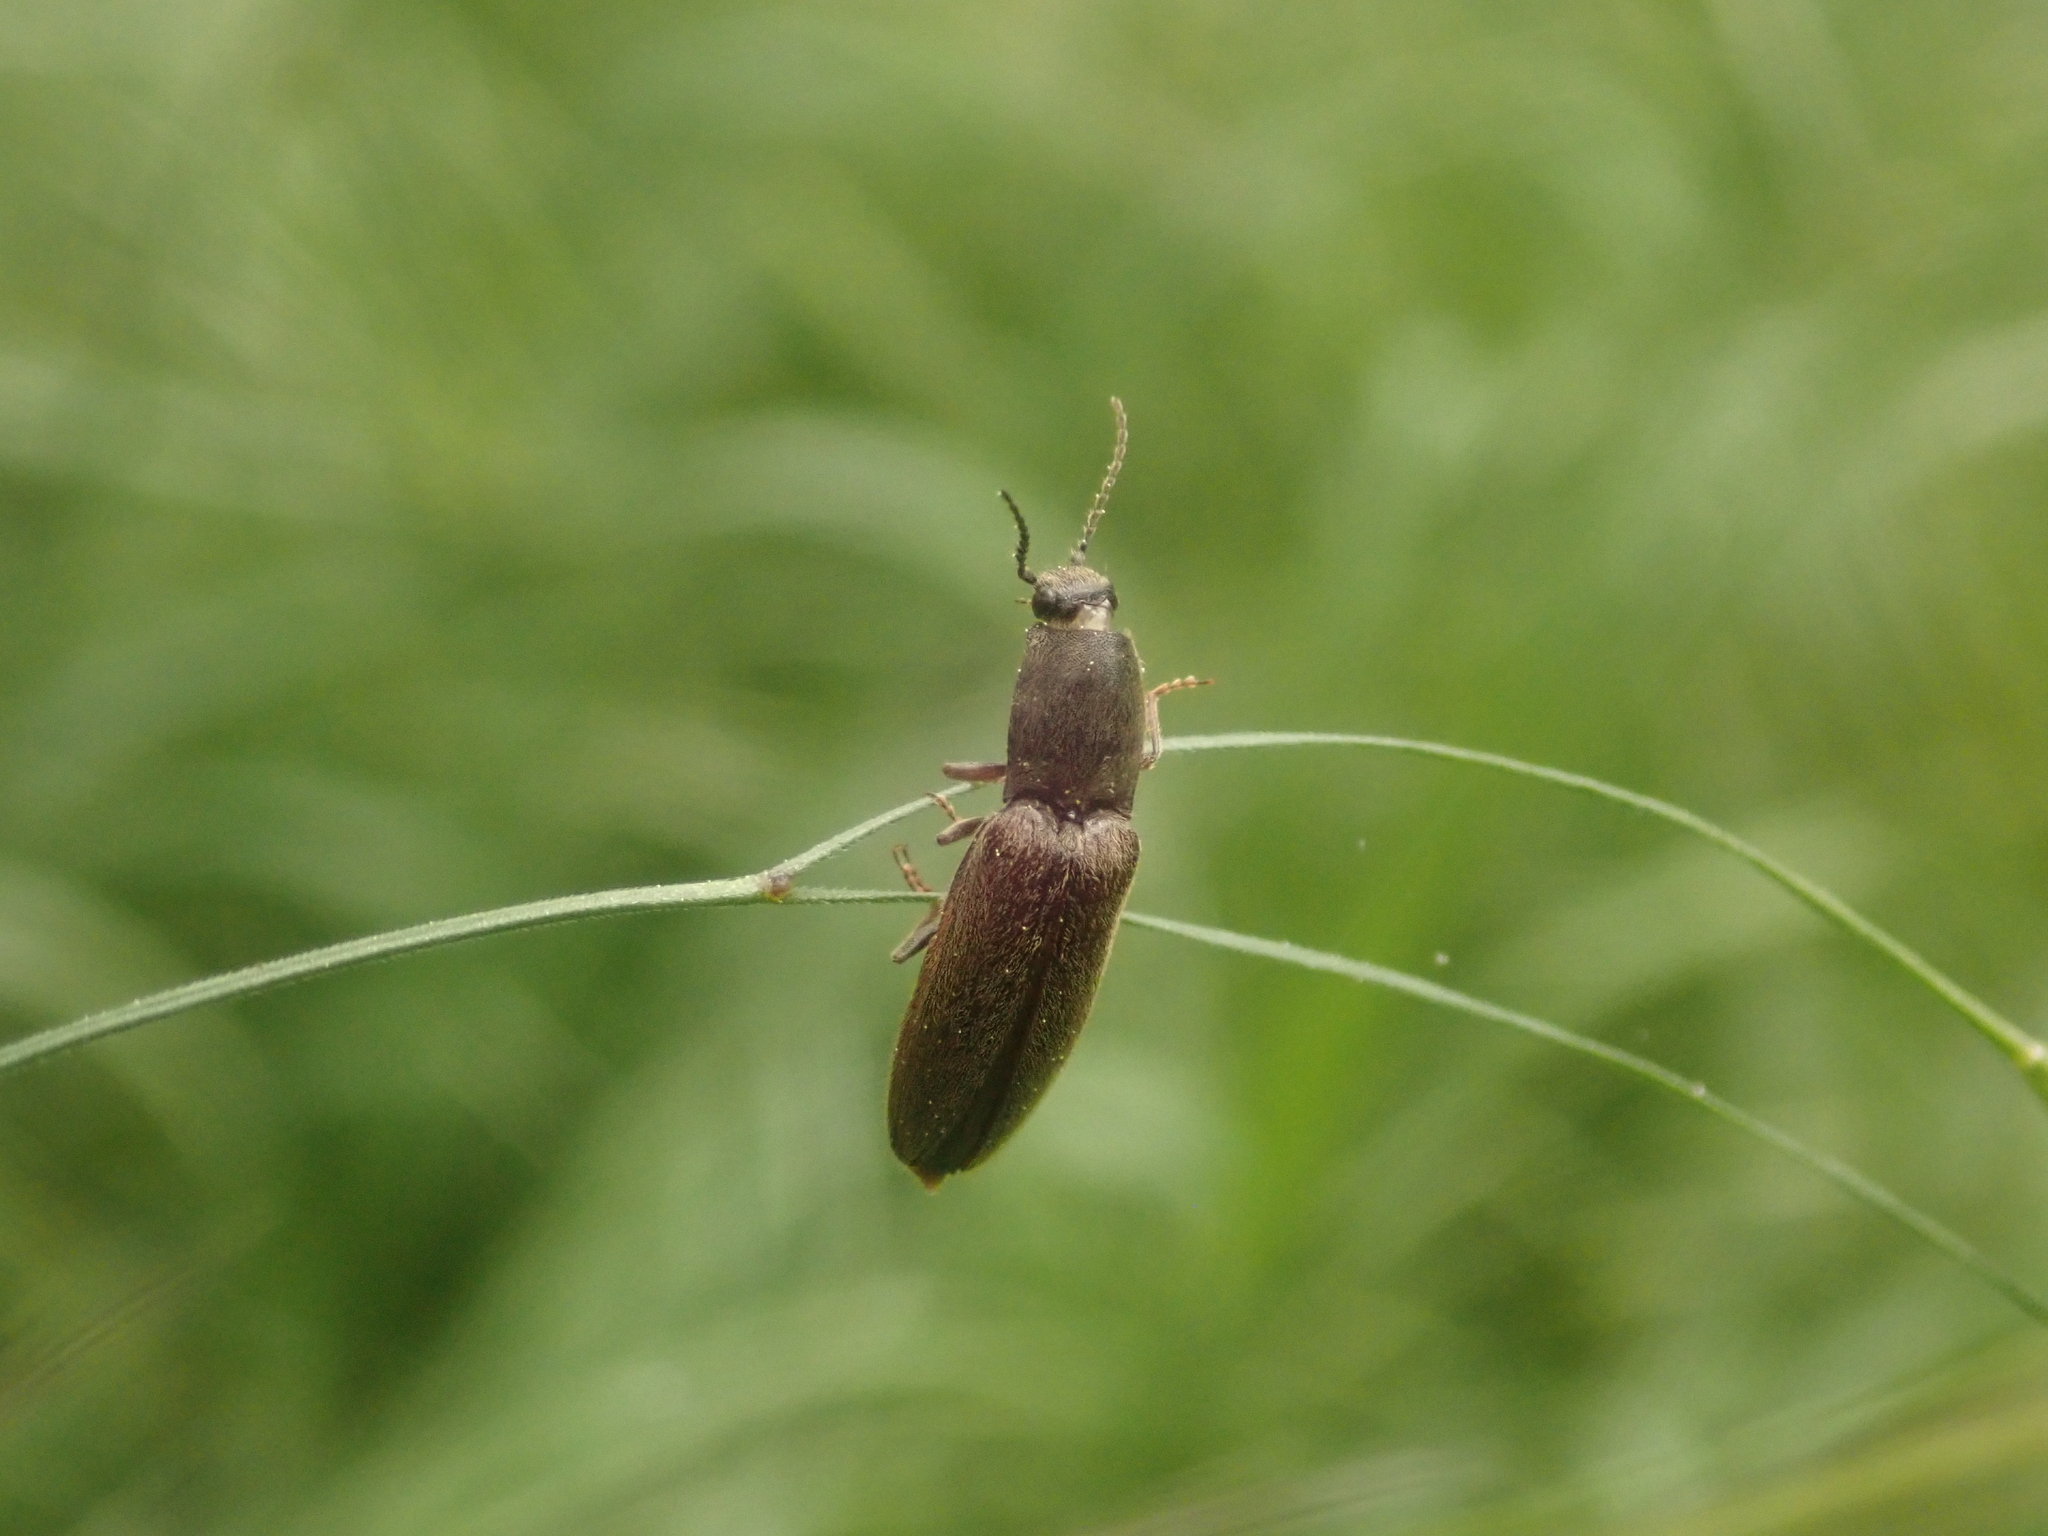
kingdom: Animalia
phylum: Arthropoda
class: Insecta
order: Coleoptera
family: Elateridae
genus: Athous
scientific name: Athous haemorrhoidalis
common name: Red-brown click beetle
